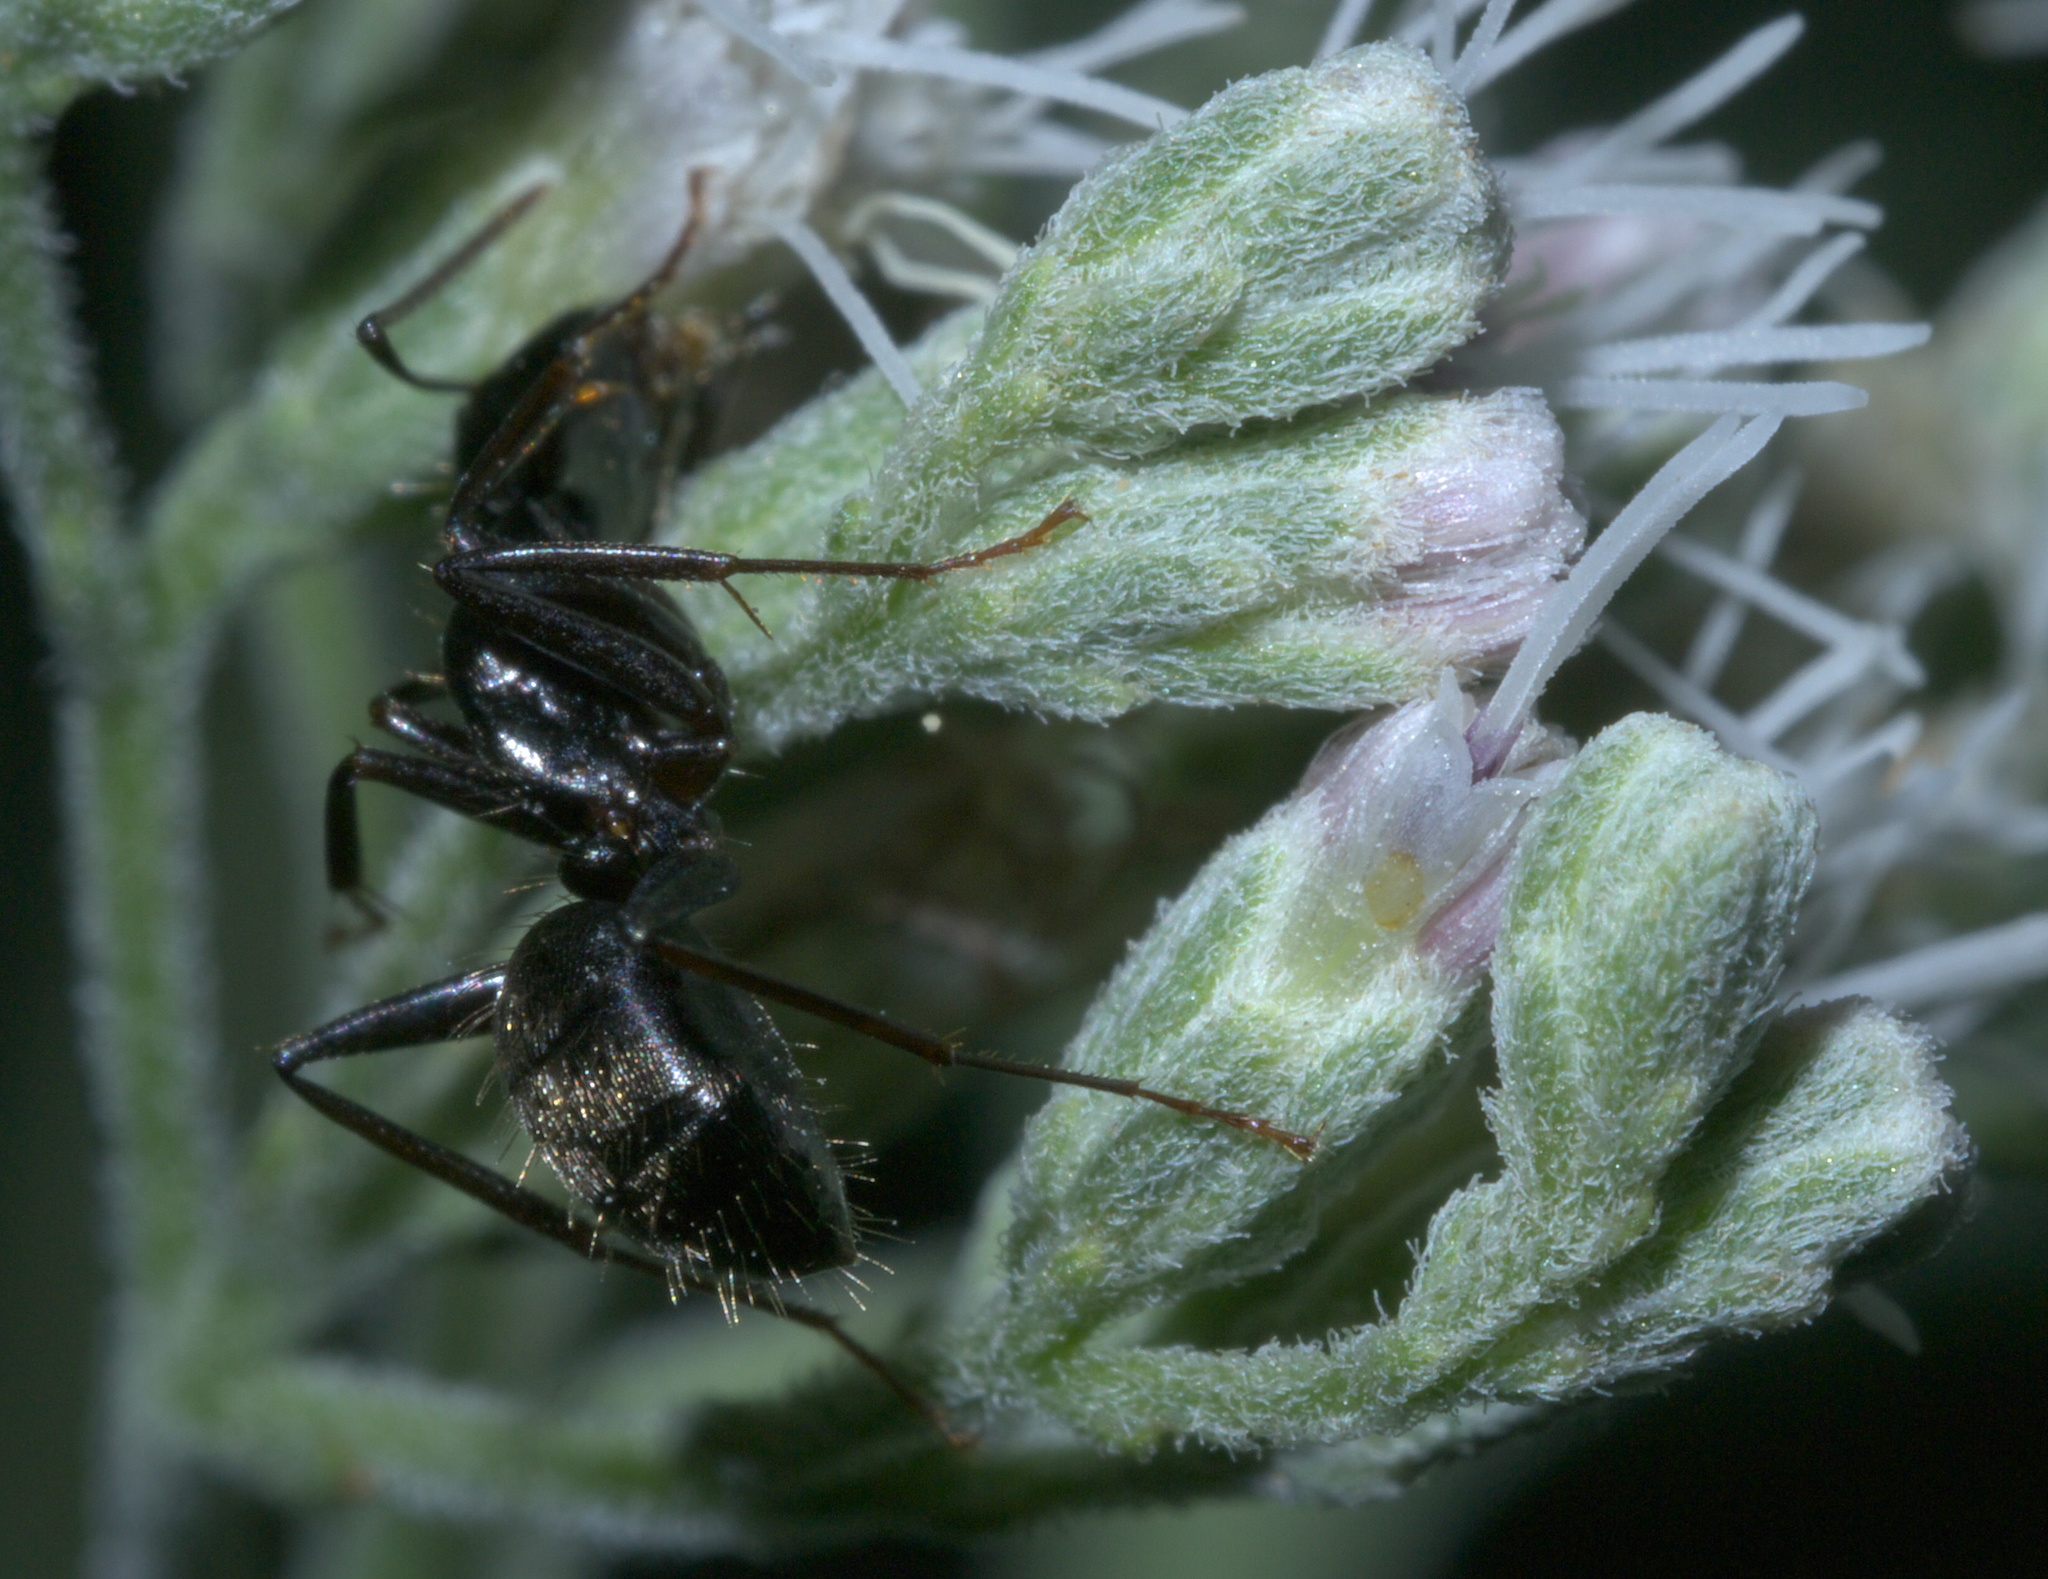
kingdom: Animalia
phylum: Arthropoda
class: Insecta
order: Hymenoptera
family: Formicidae
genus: Camponotus
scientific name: Camponotus pennsylvanicus
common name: Black carpenter ant
